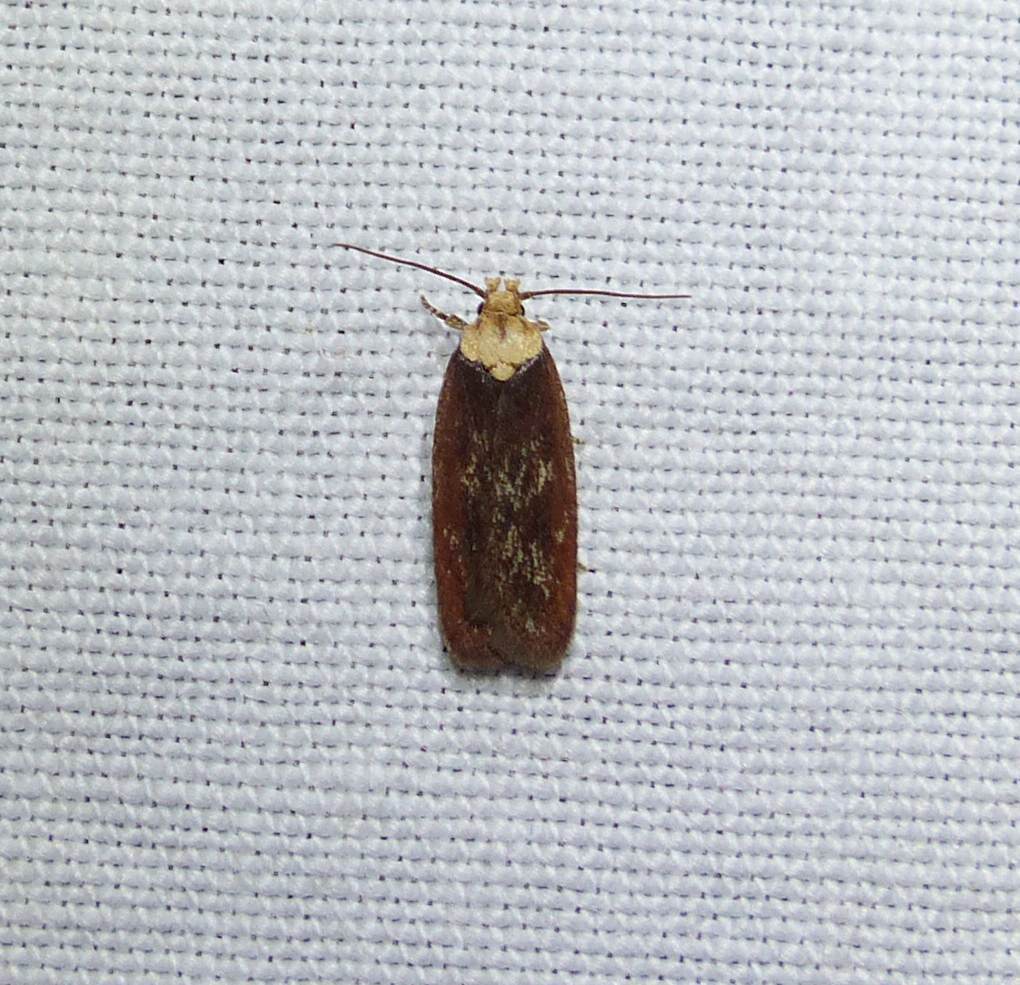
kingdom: Animalia
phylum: Arthropoda
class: Insecta
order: Lepidoptera
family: Depressariidae
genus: Depressaria
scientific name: Depressaria depressana
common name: Lost flat-body
